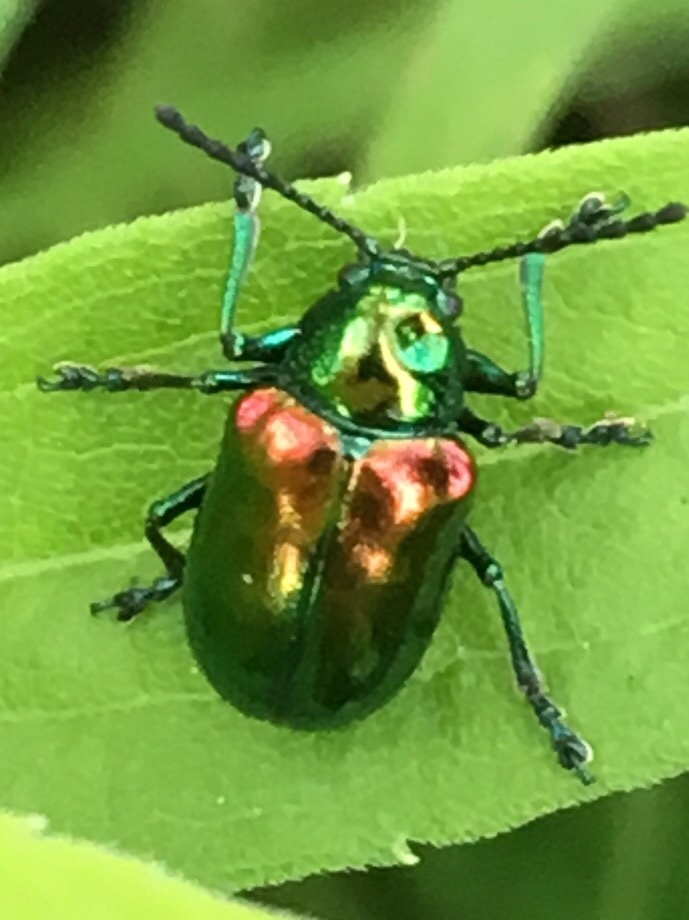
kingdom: Animalia
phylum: Arthropoda
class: Insecta
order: Coleoptera
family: Chrysomelidae
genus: Chrysochus
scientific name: Chrysochus auratus
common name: Dogbane leaf beetle
